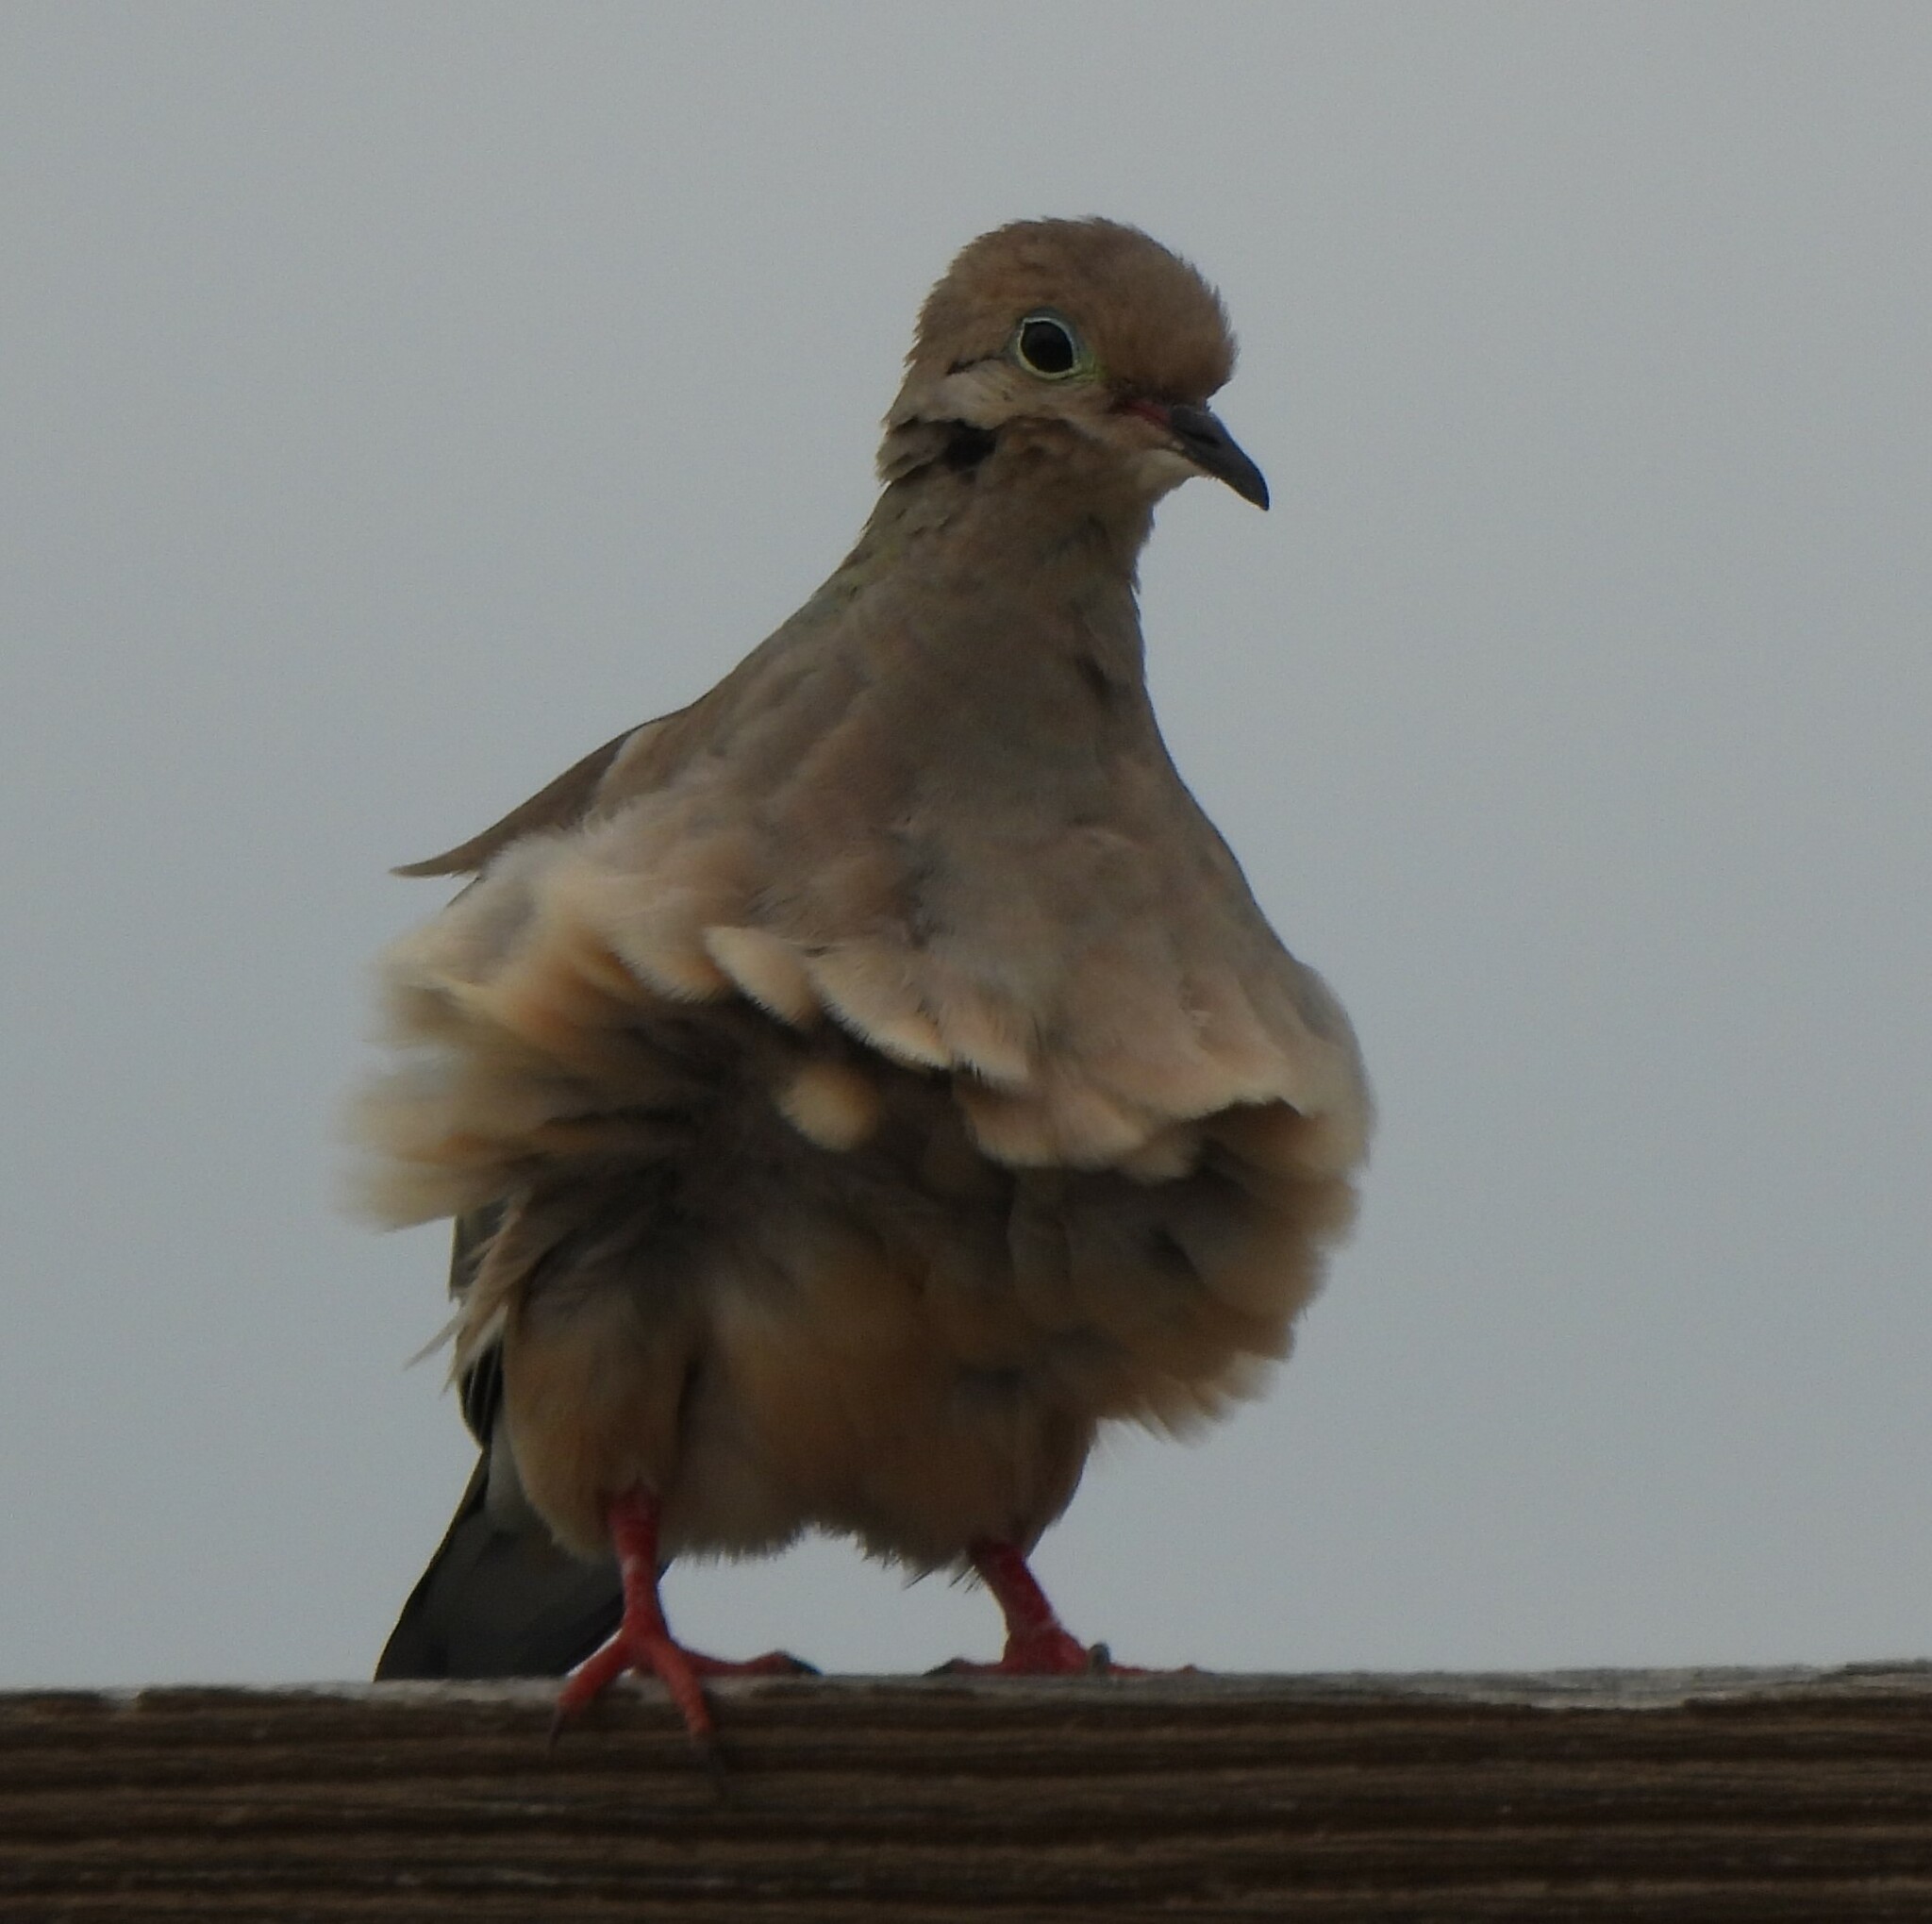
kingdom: Animalia
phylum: Chordata
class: Aves
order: Columbiformes
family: Columbidae
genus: Zenaida
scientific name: Zenaida macroura
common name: Mourning dove
